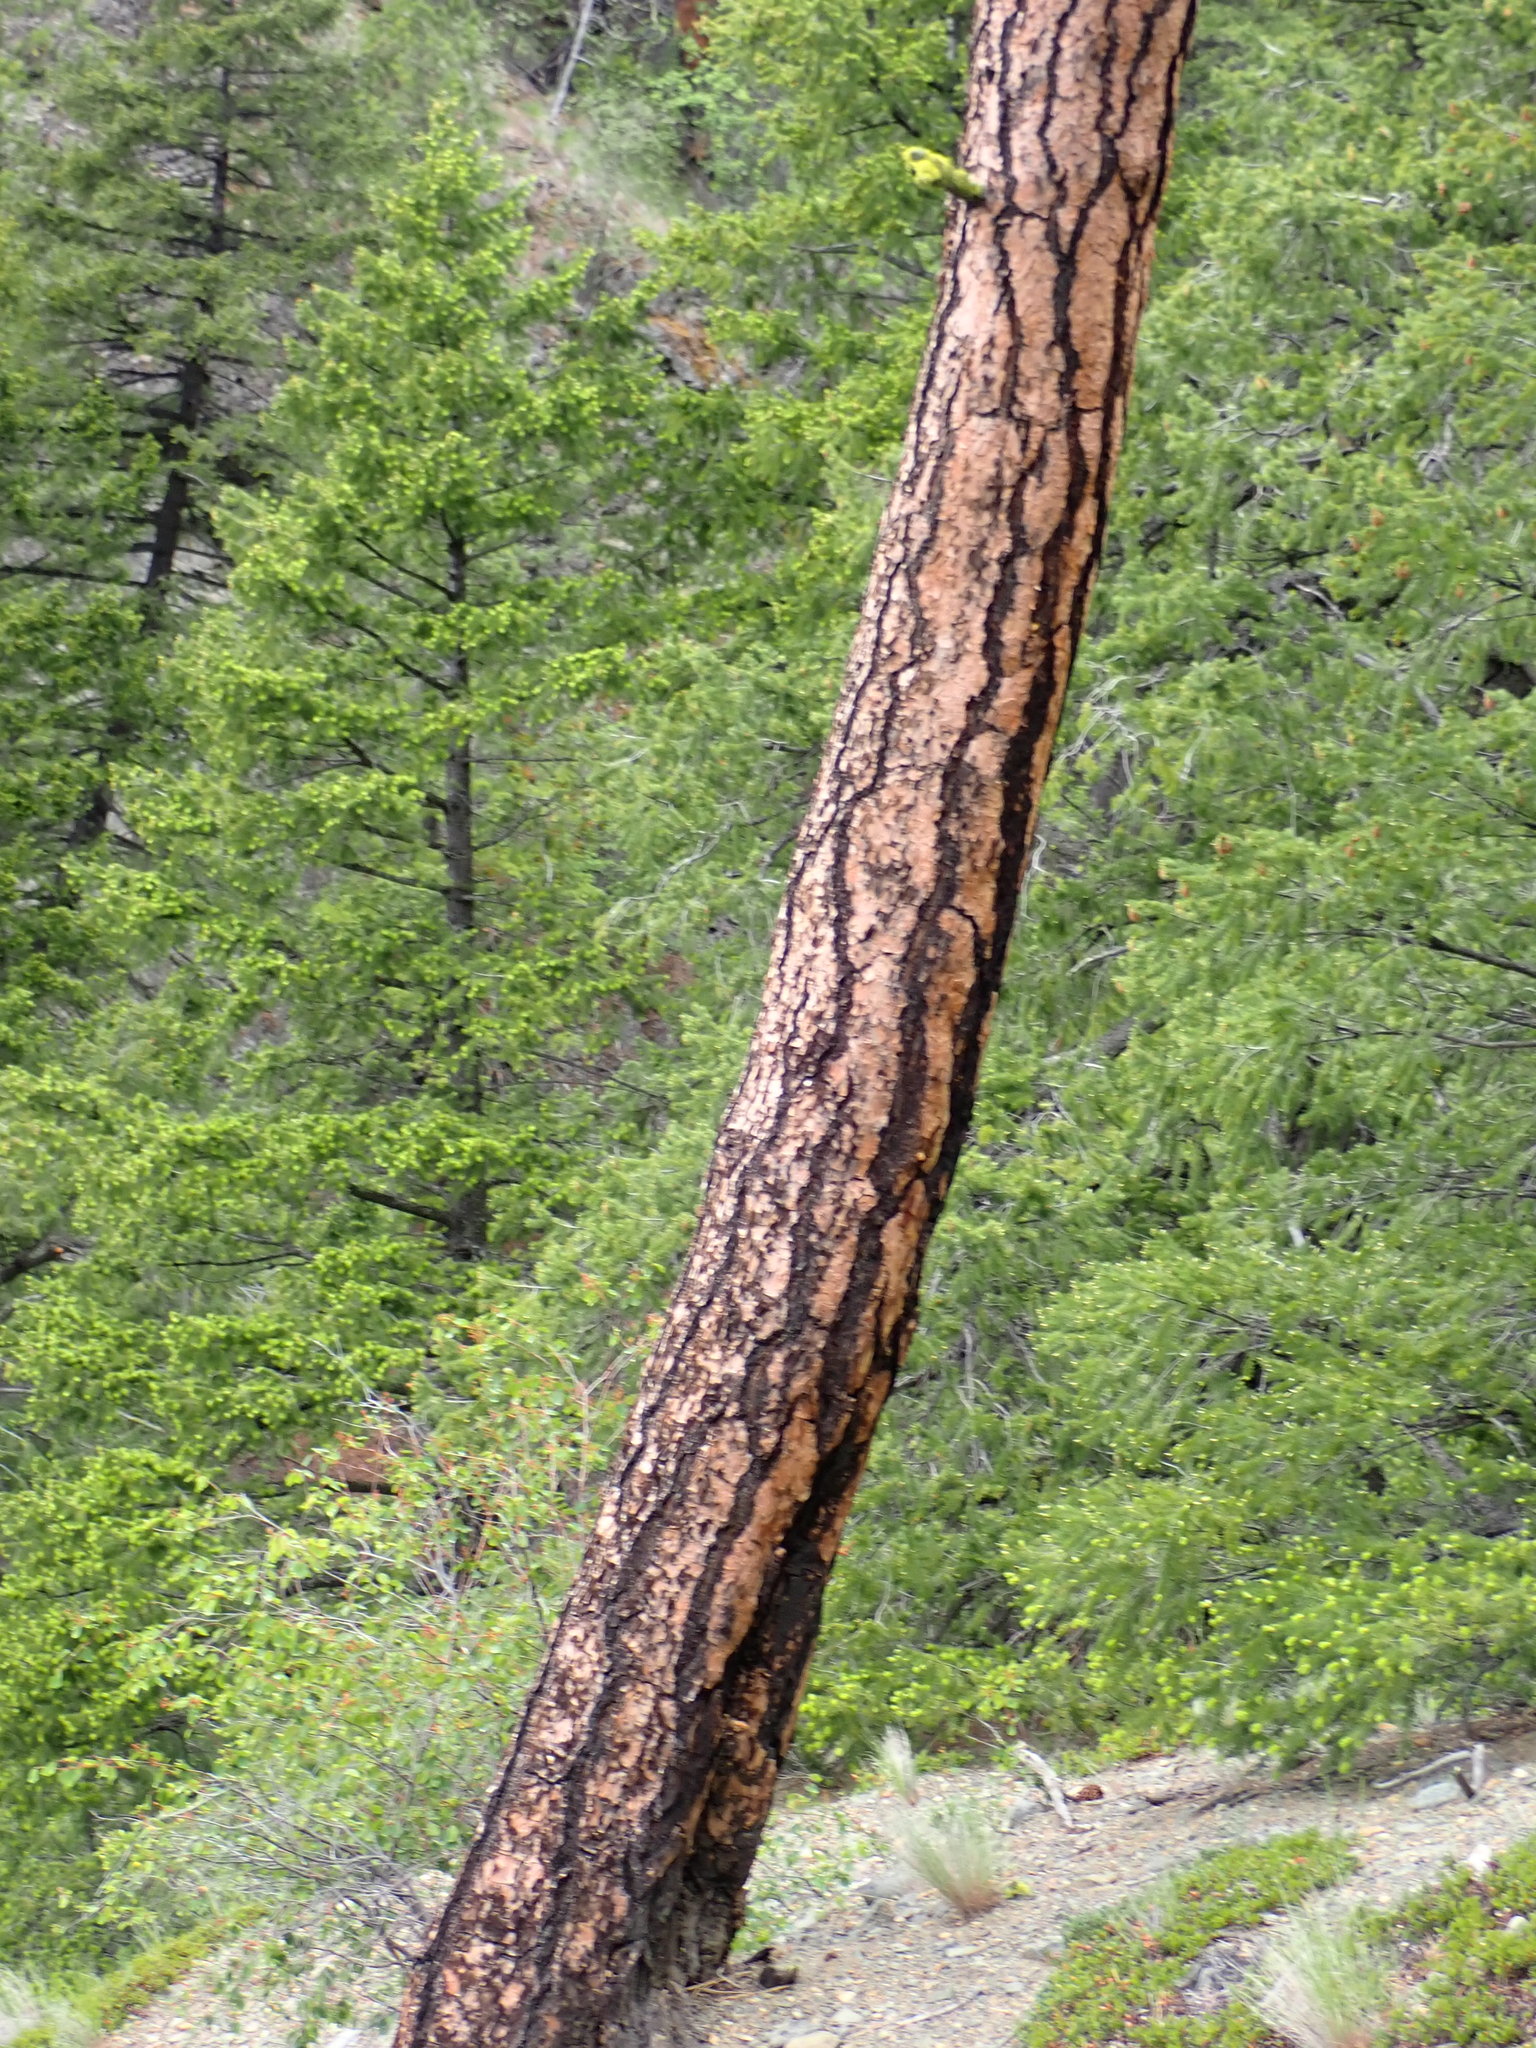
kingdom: Plantae
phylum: Tracheophyta
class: Pinopsida
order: Pinales
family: Pinaceae
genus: Pinus
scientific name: Pinus ponderosa
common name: Western yellow-pine
